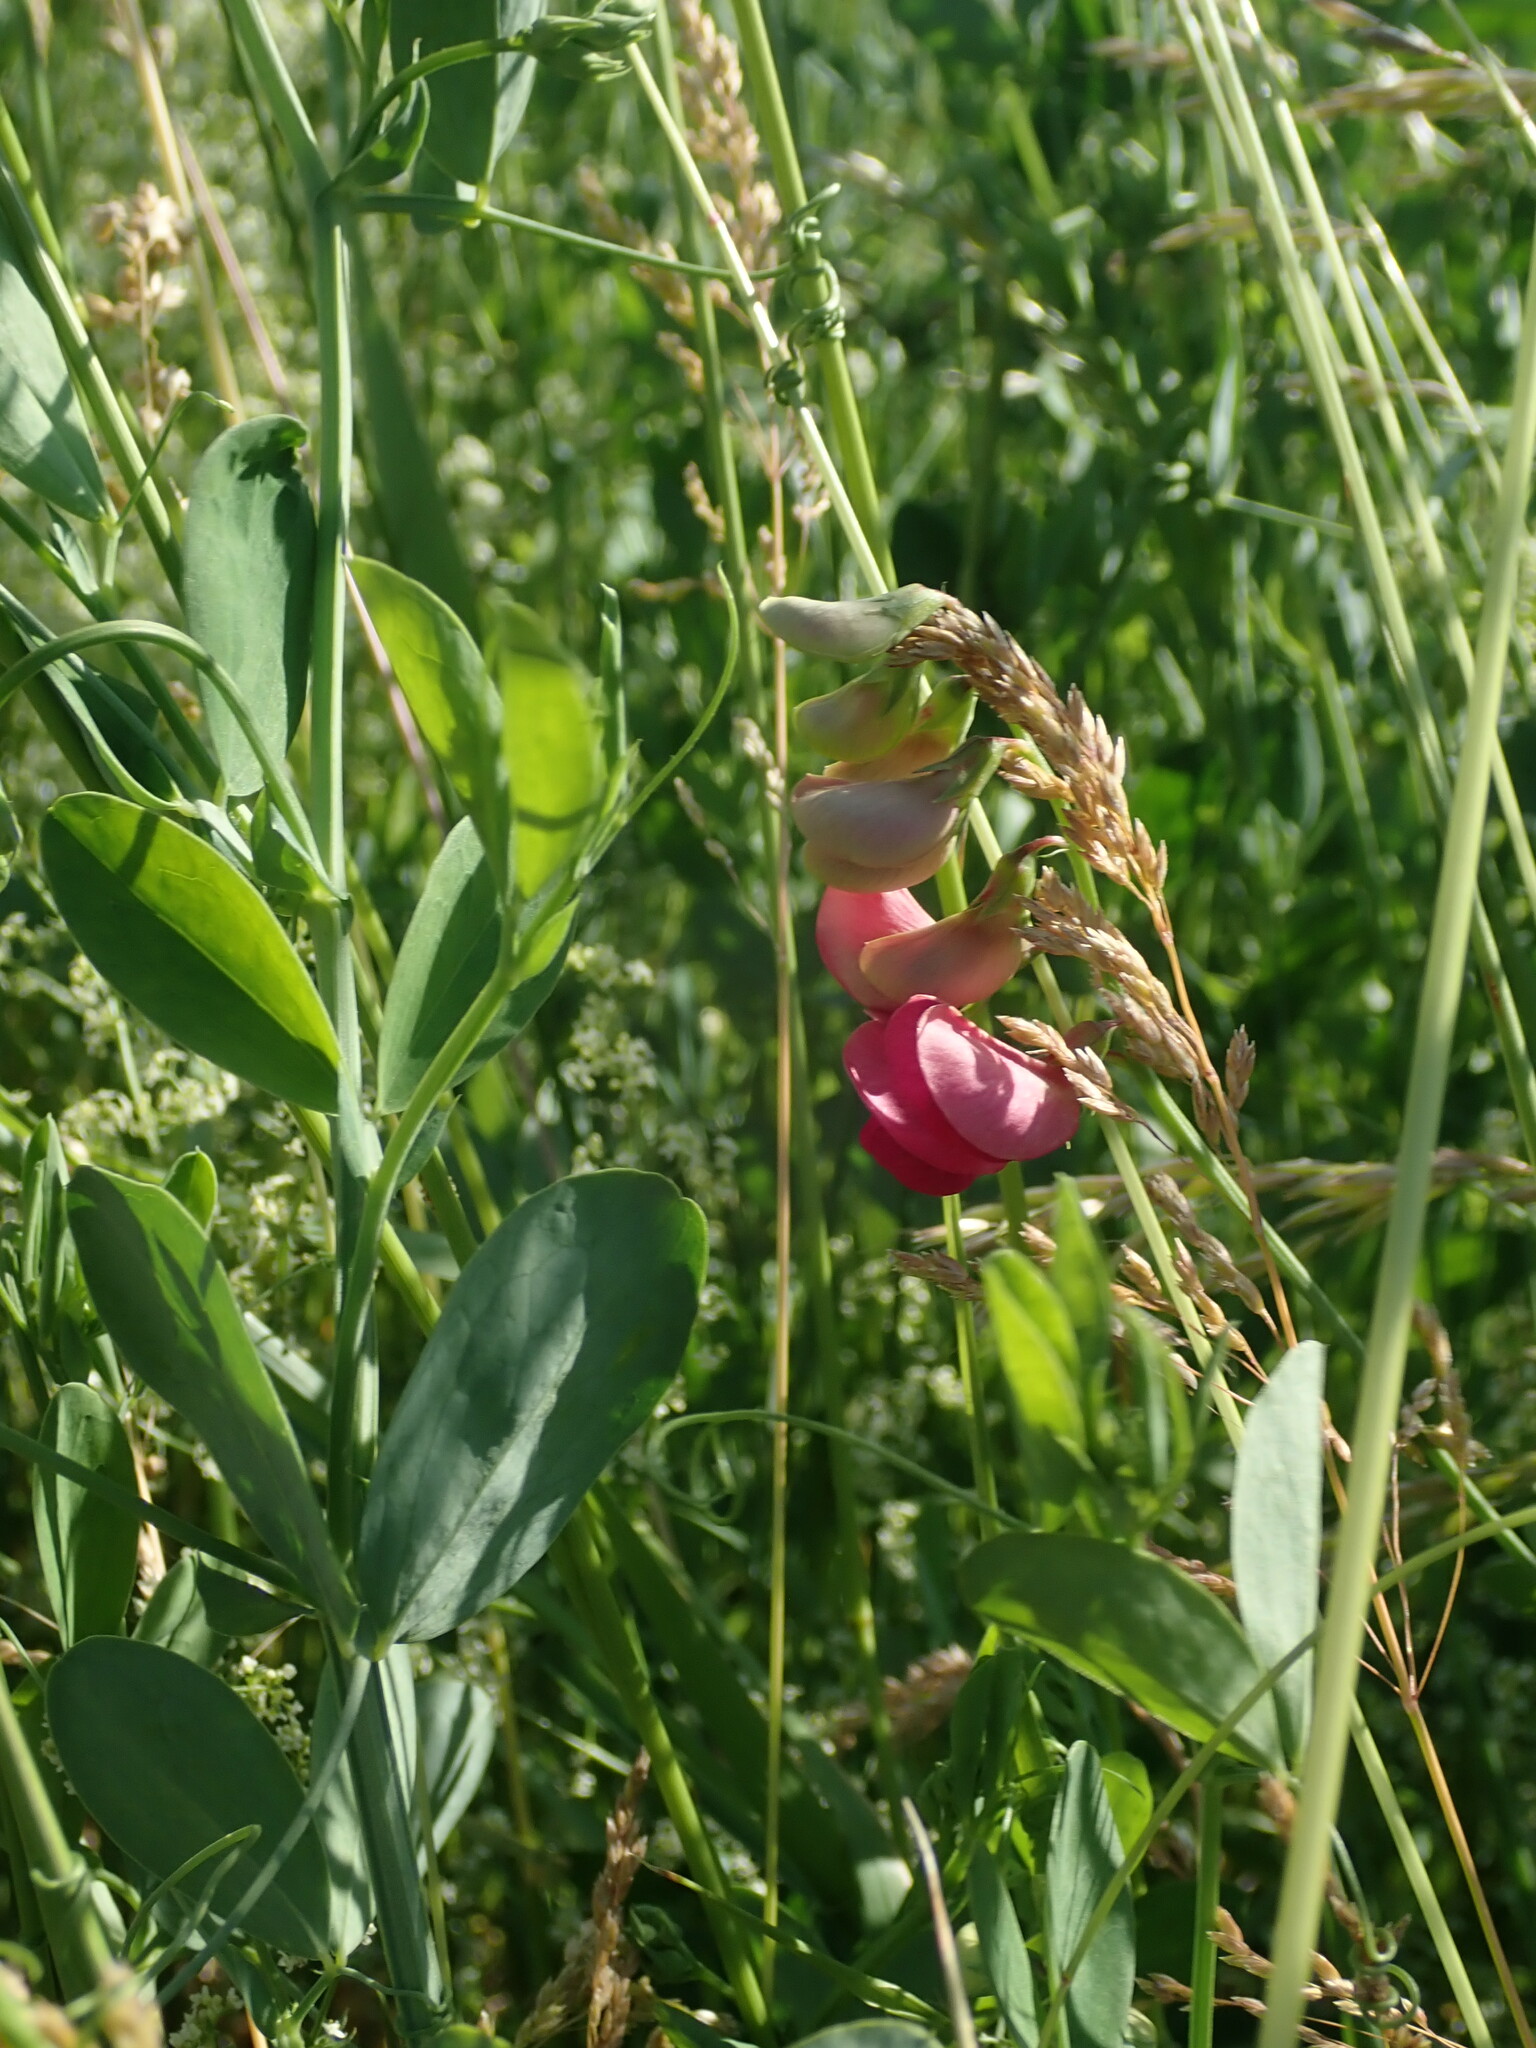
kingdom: Plantae
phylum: Tracheophyta
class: Magnoliopsida
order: Fabales
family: Fabaceae
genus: Lathyrus
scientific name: Lathyrus tuberosus
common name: Tuberous pea
